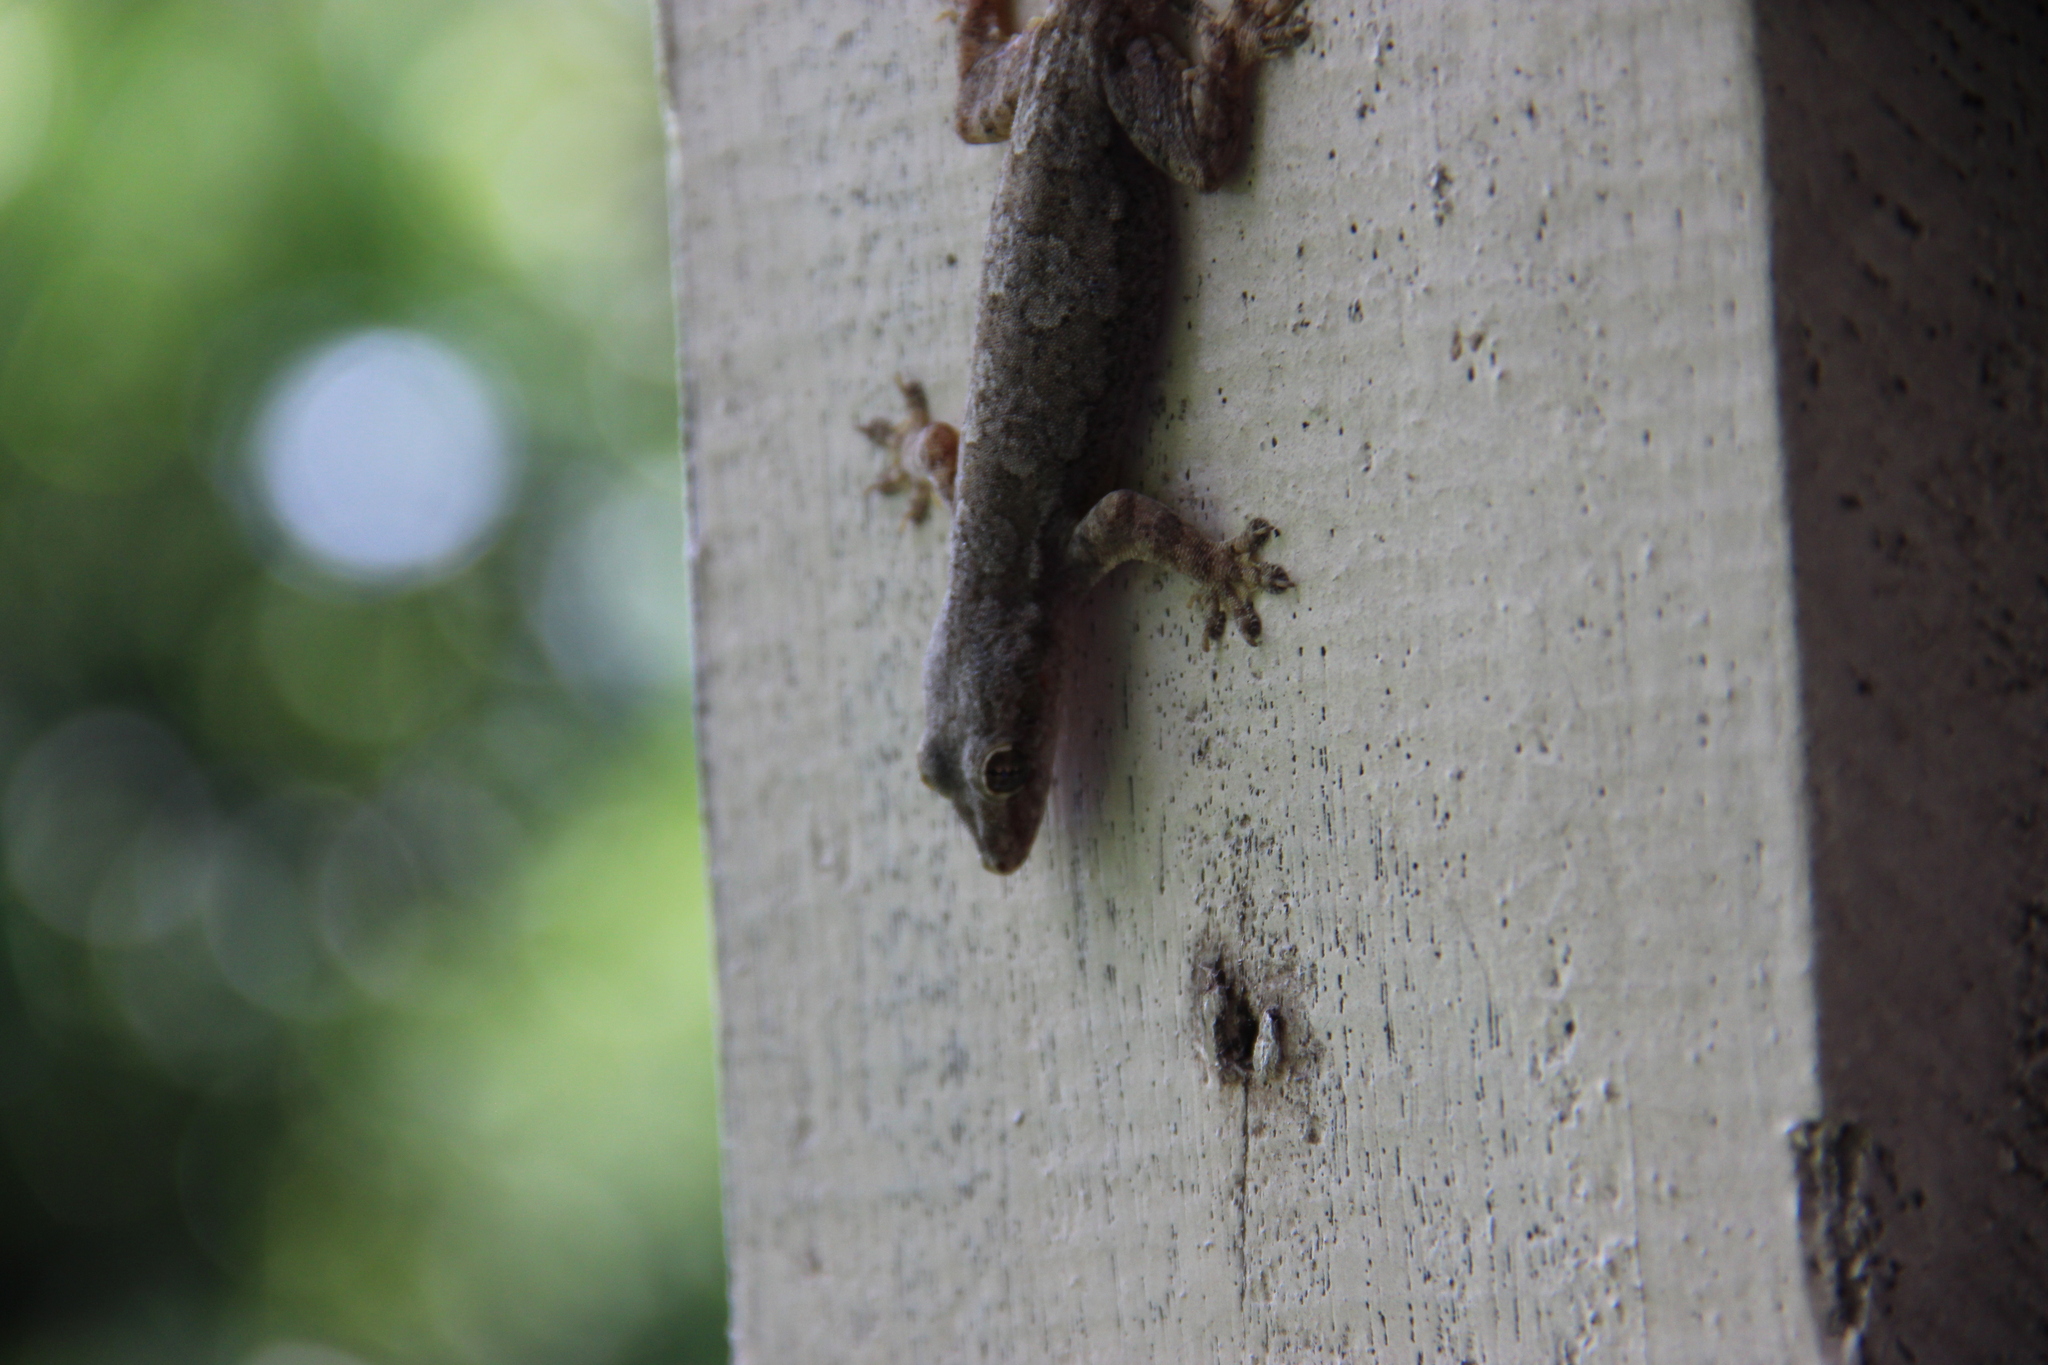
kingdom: Animalia
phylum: Chordata
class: Squamata
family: Gekkonidae
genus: Hemidactylus
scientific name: Hemidactylus platyurus
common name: Flat-tailed house gecko
